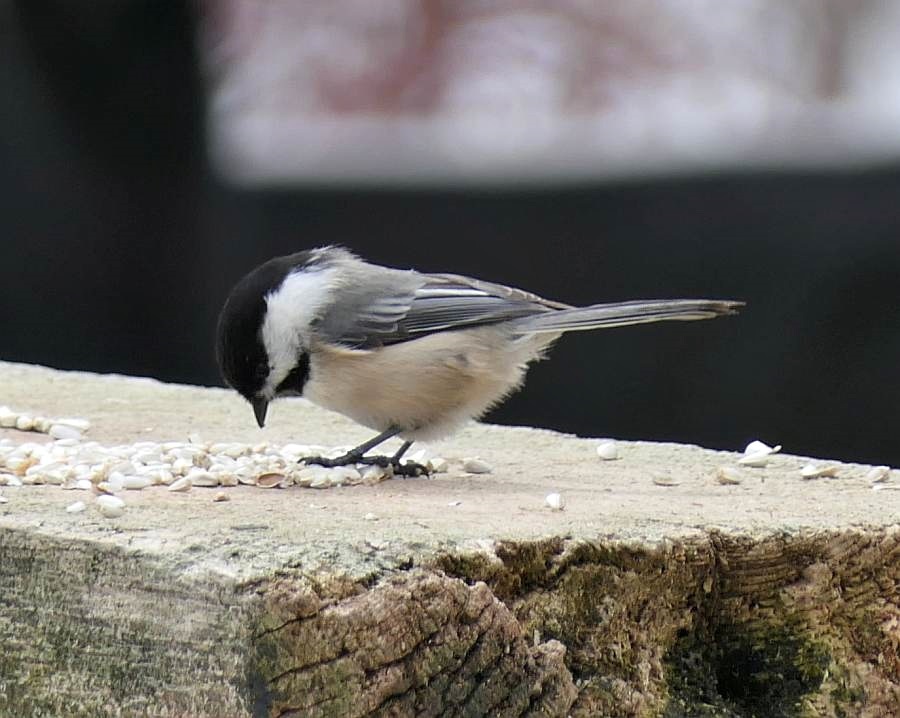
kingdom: Animalia
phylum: Chordata
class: Aves
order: Passeriformes
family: Paridae
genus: Poecile
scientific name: Poecile atricapillus
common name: Black-capped chickadee
